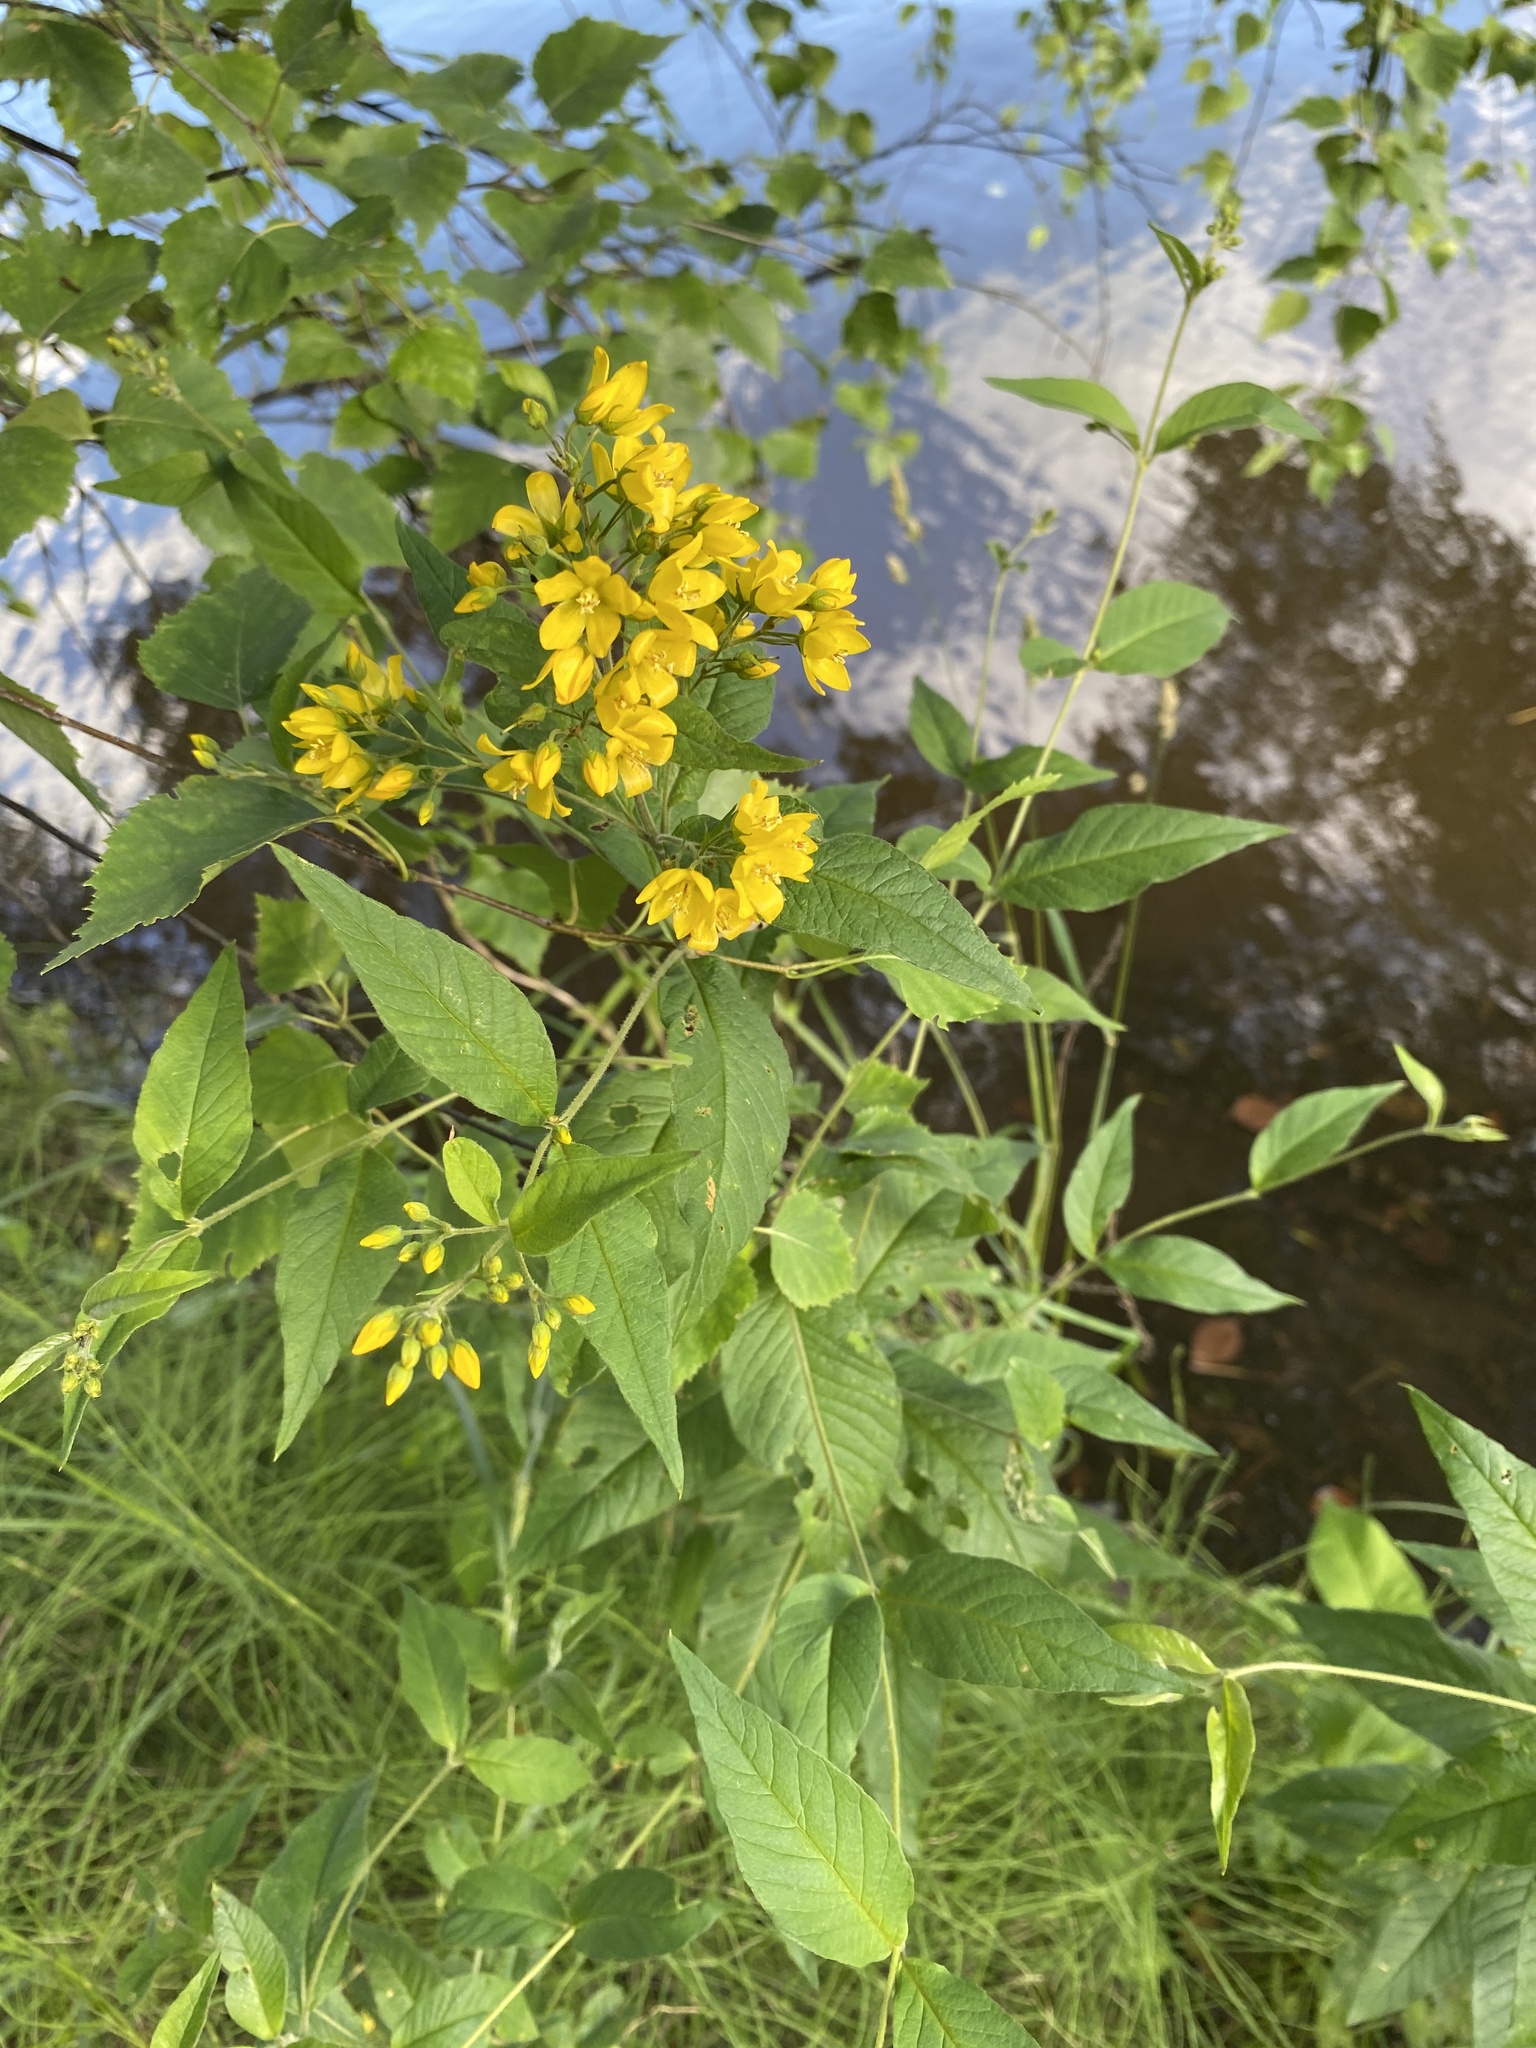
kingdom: Plantae
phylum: Tracheophyta
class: Magnoliopsida
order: Ericales
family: Primulaceae
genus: Lysimachia
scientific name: Lysimachia vulgaris
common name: Yellow loosestrife
